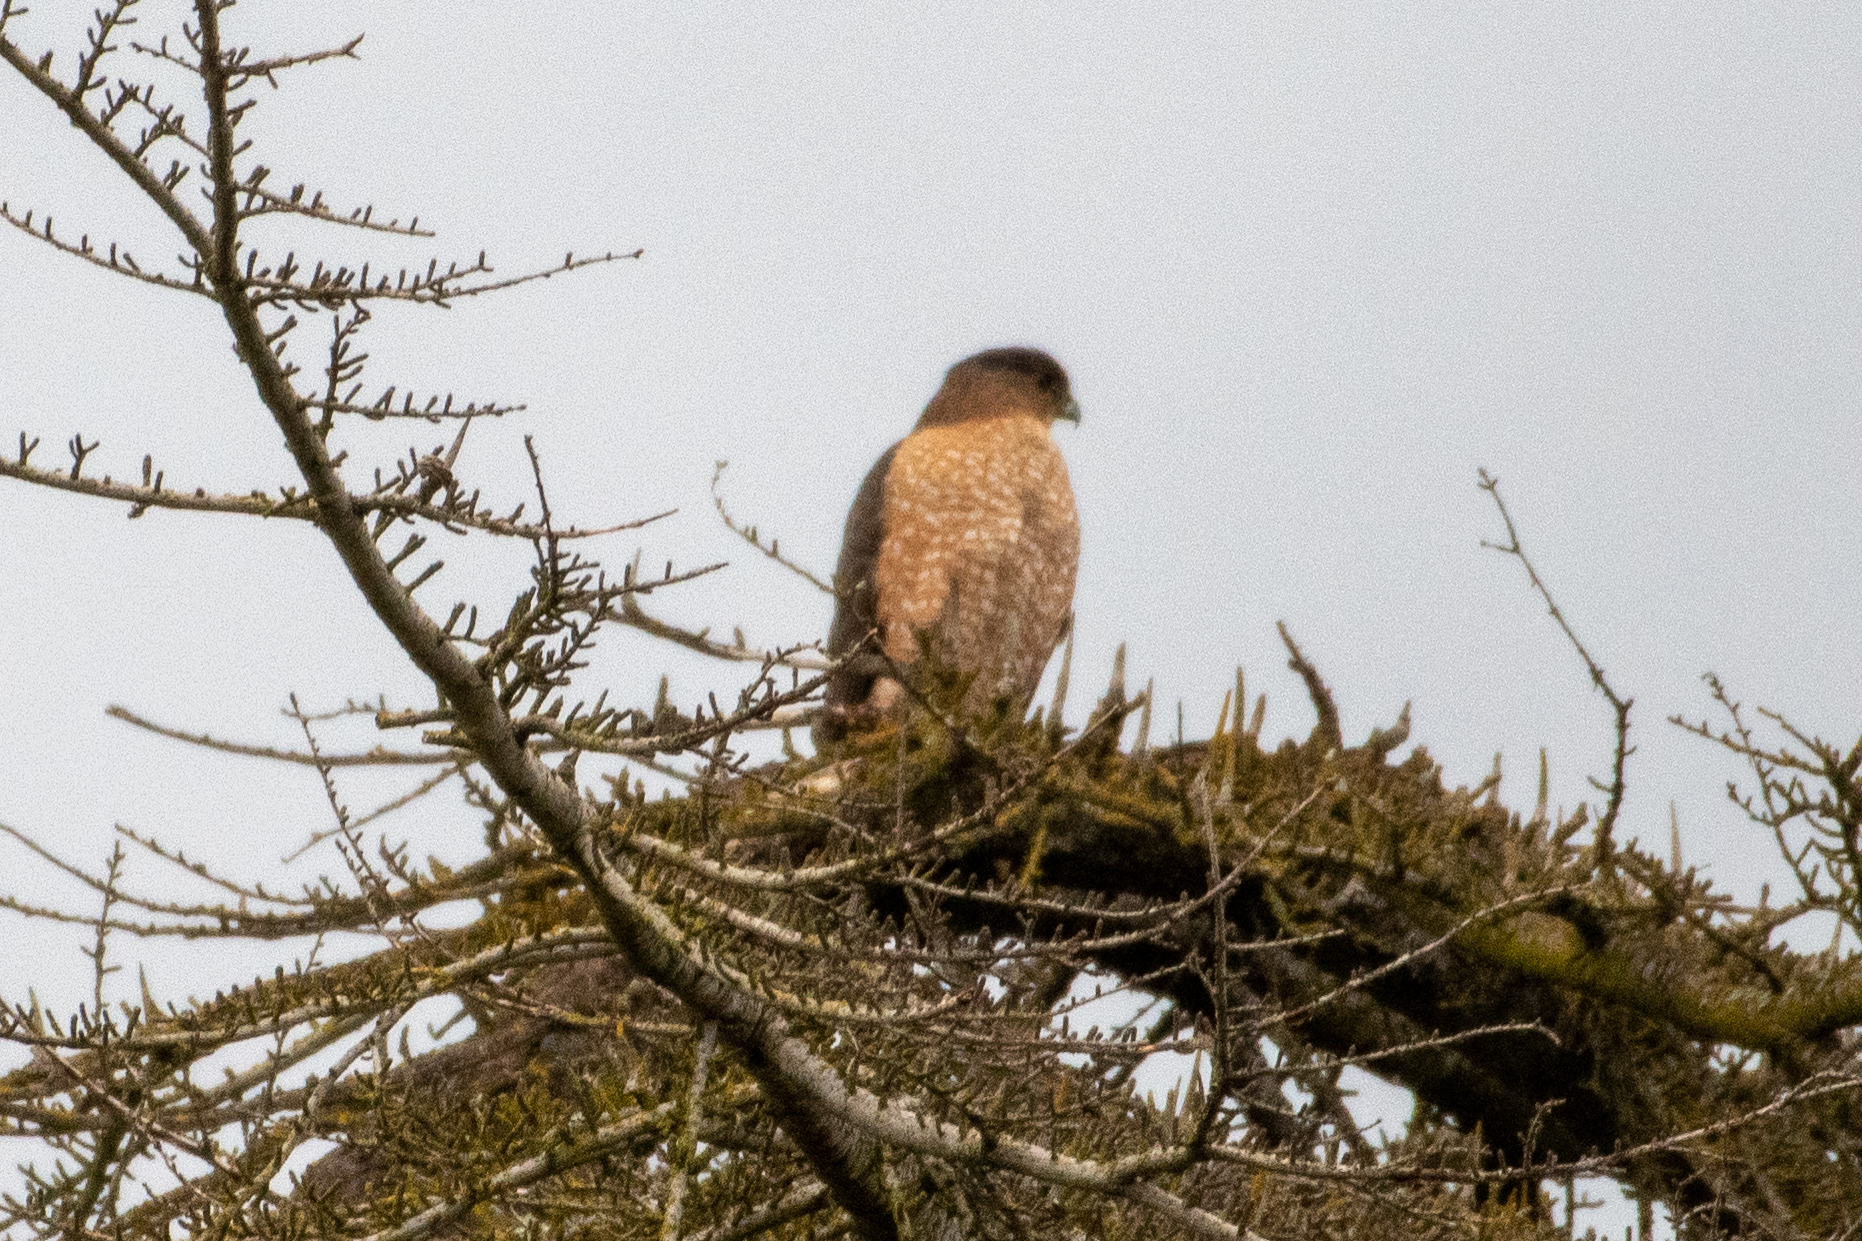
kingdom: Animalia
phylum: Chordata
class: Aves
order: Accipitriformes
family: Accipitridae
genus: Accipiter
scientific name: Accipiter cooperii
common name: Cooper's hawk
